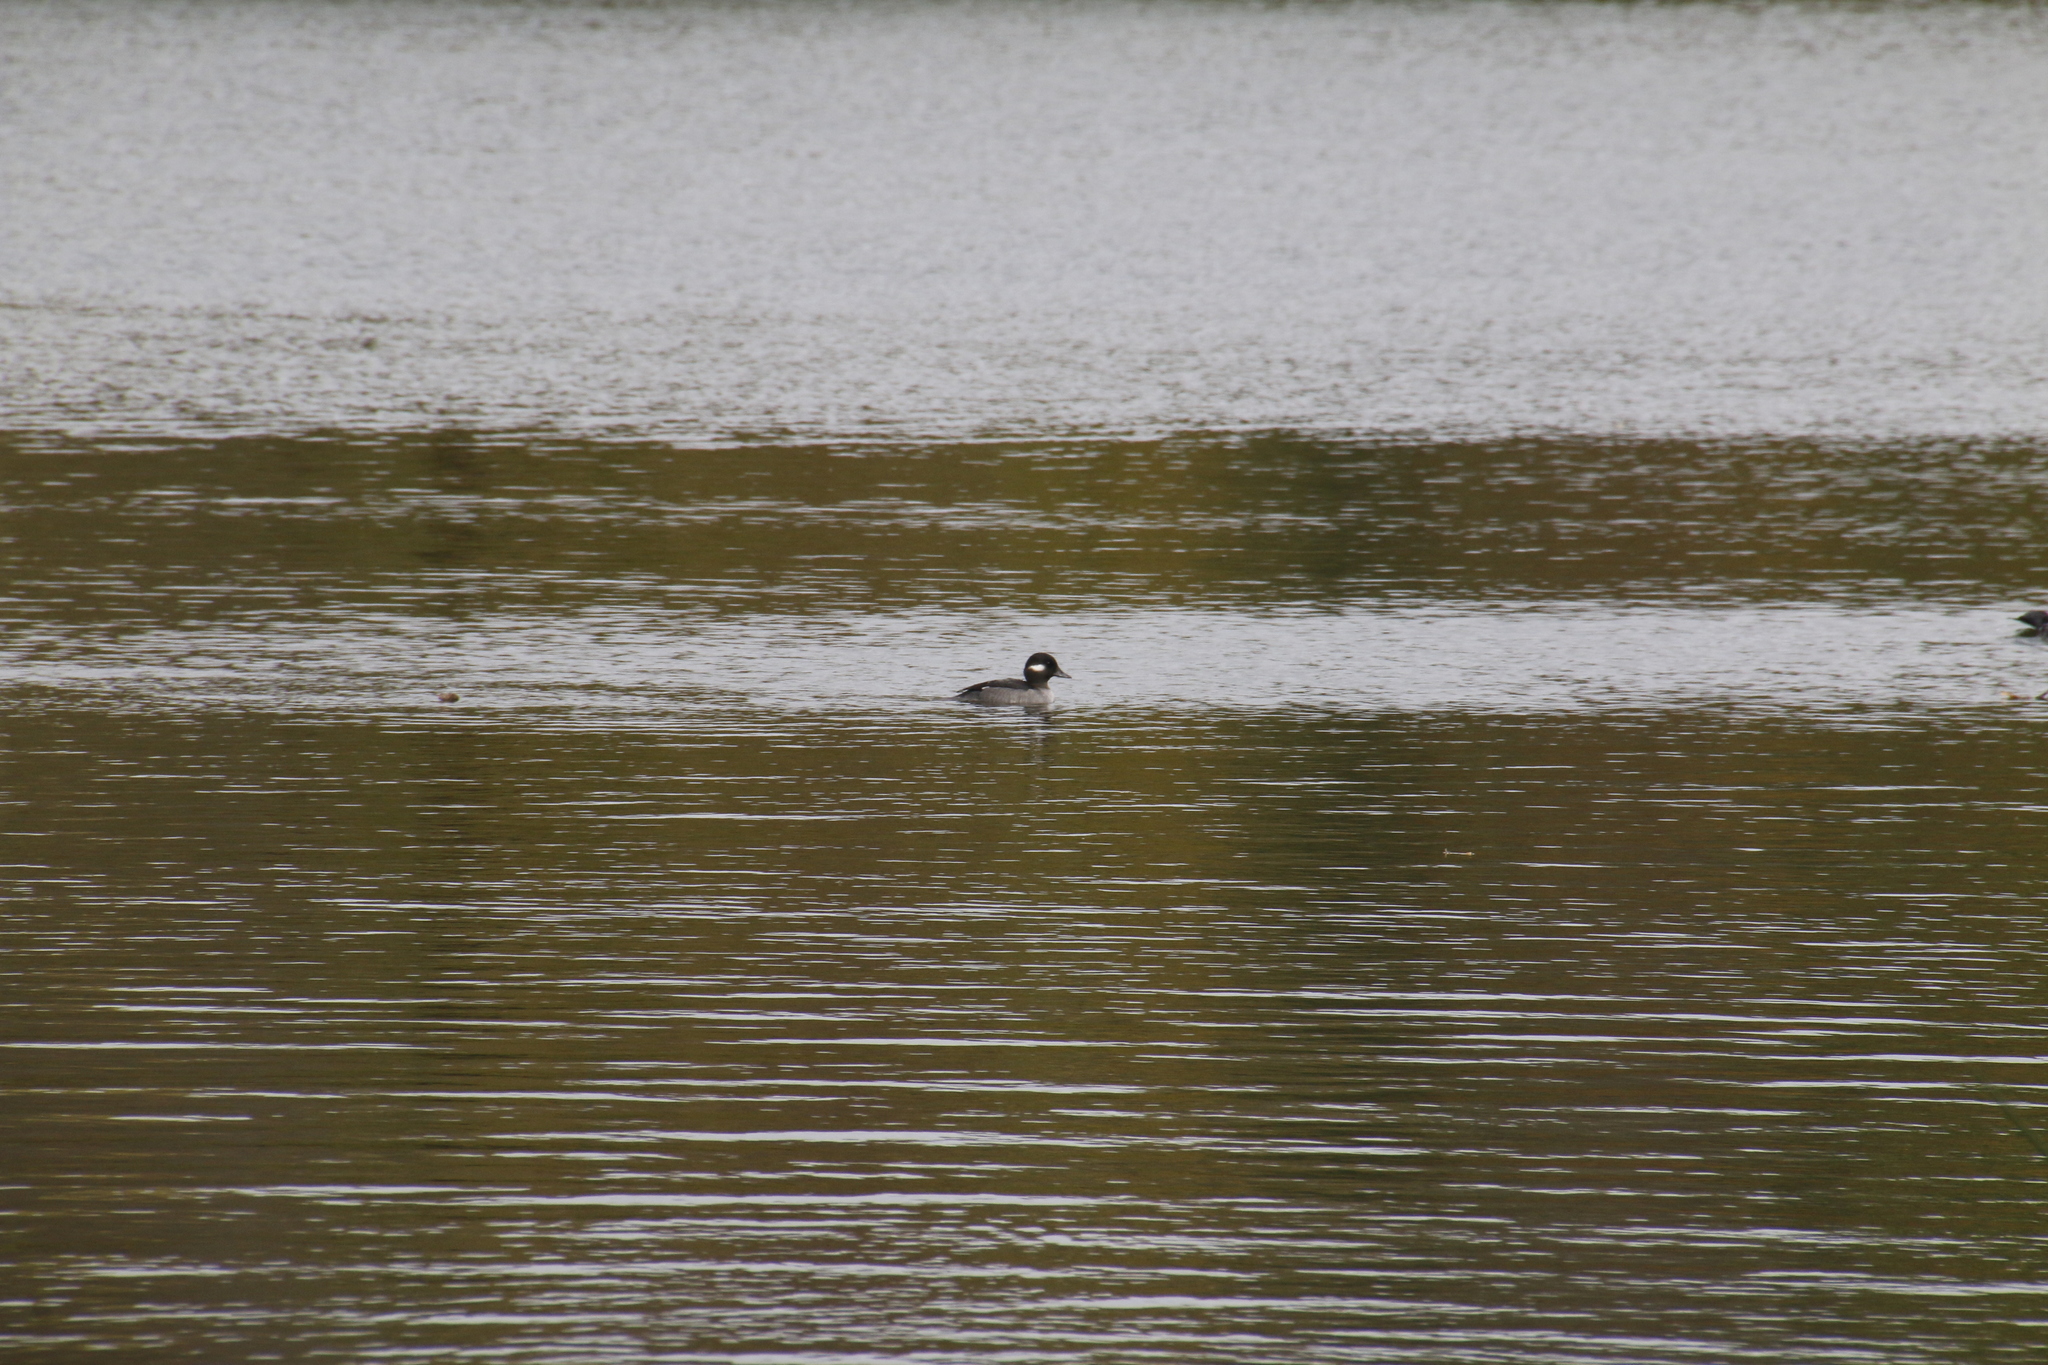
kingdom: Animalia
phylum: Chordata
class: Aves
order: Anseriformes
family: Anatidae
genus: Bucephala
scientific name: Bucephala albeola
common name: Bufflehead
